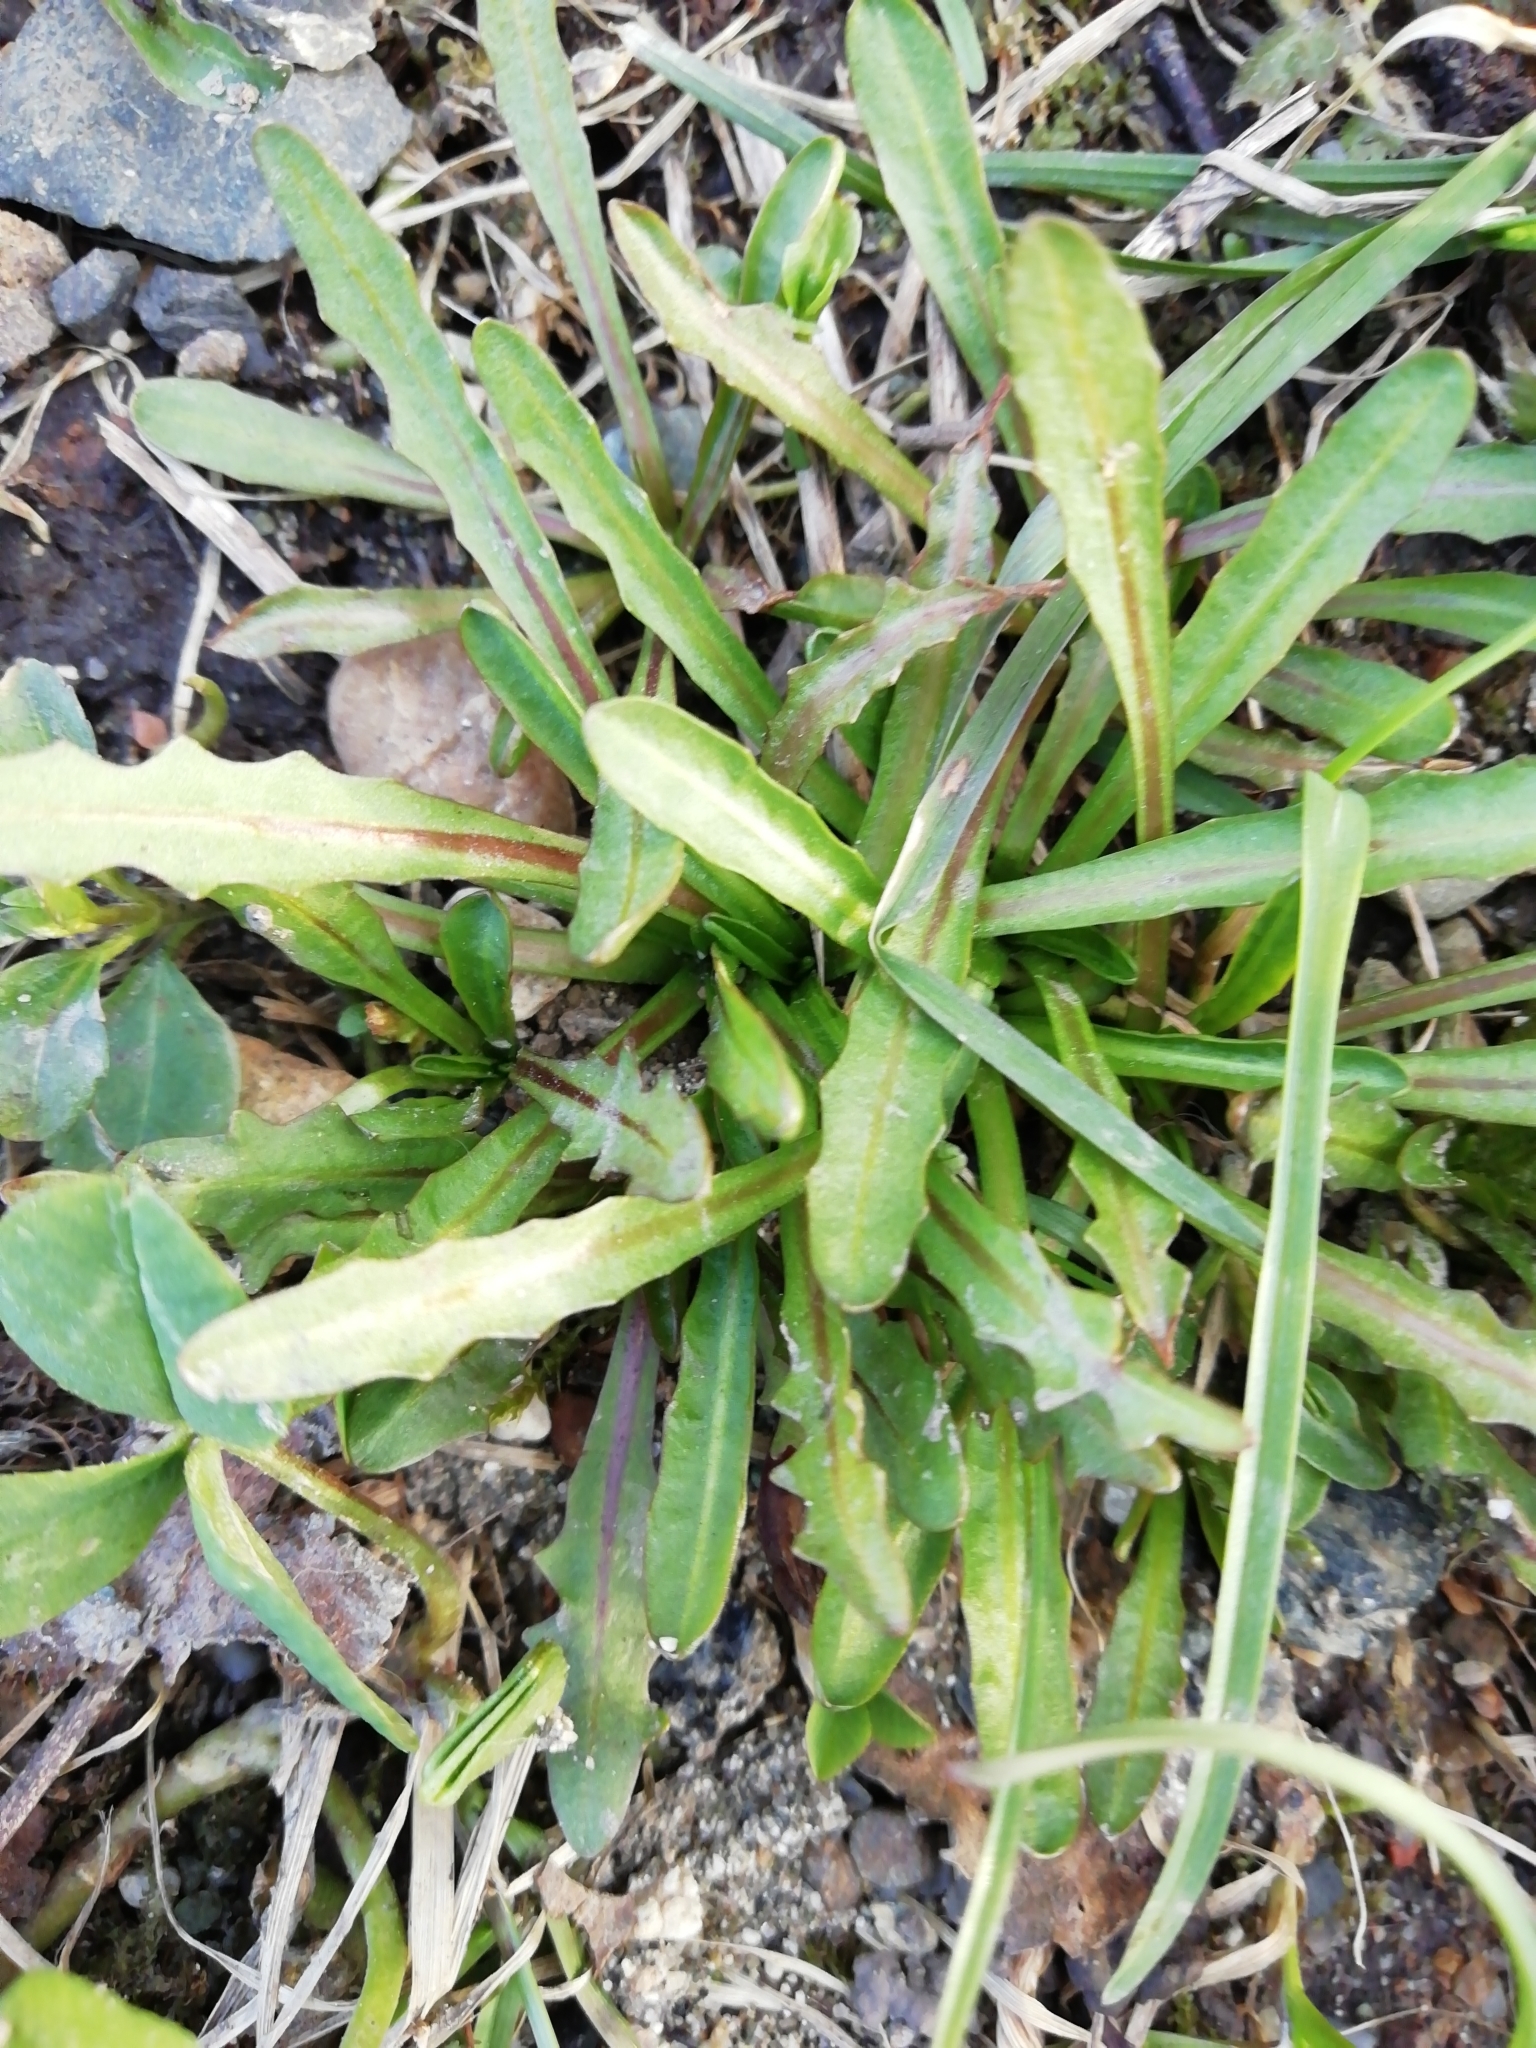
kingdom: Plantae
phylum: Tracheophyta
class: Magnoliopsida
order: Asterales
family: Asteraceae
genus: Scorzoneroides
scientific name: Scorzoneroides autumnalis
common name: Autumn hawkbit
